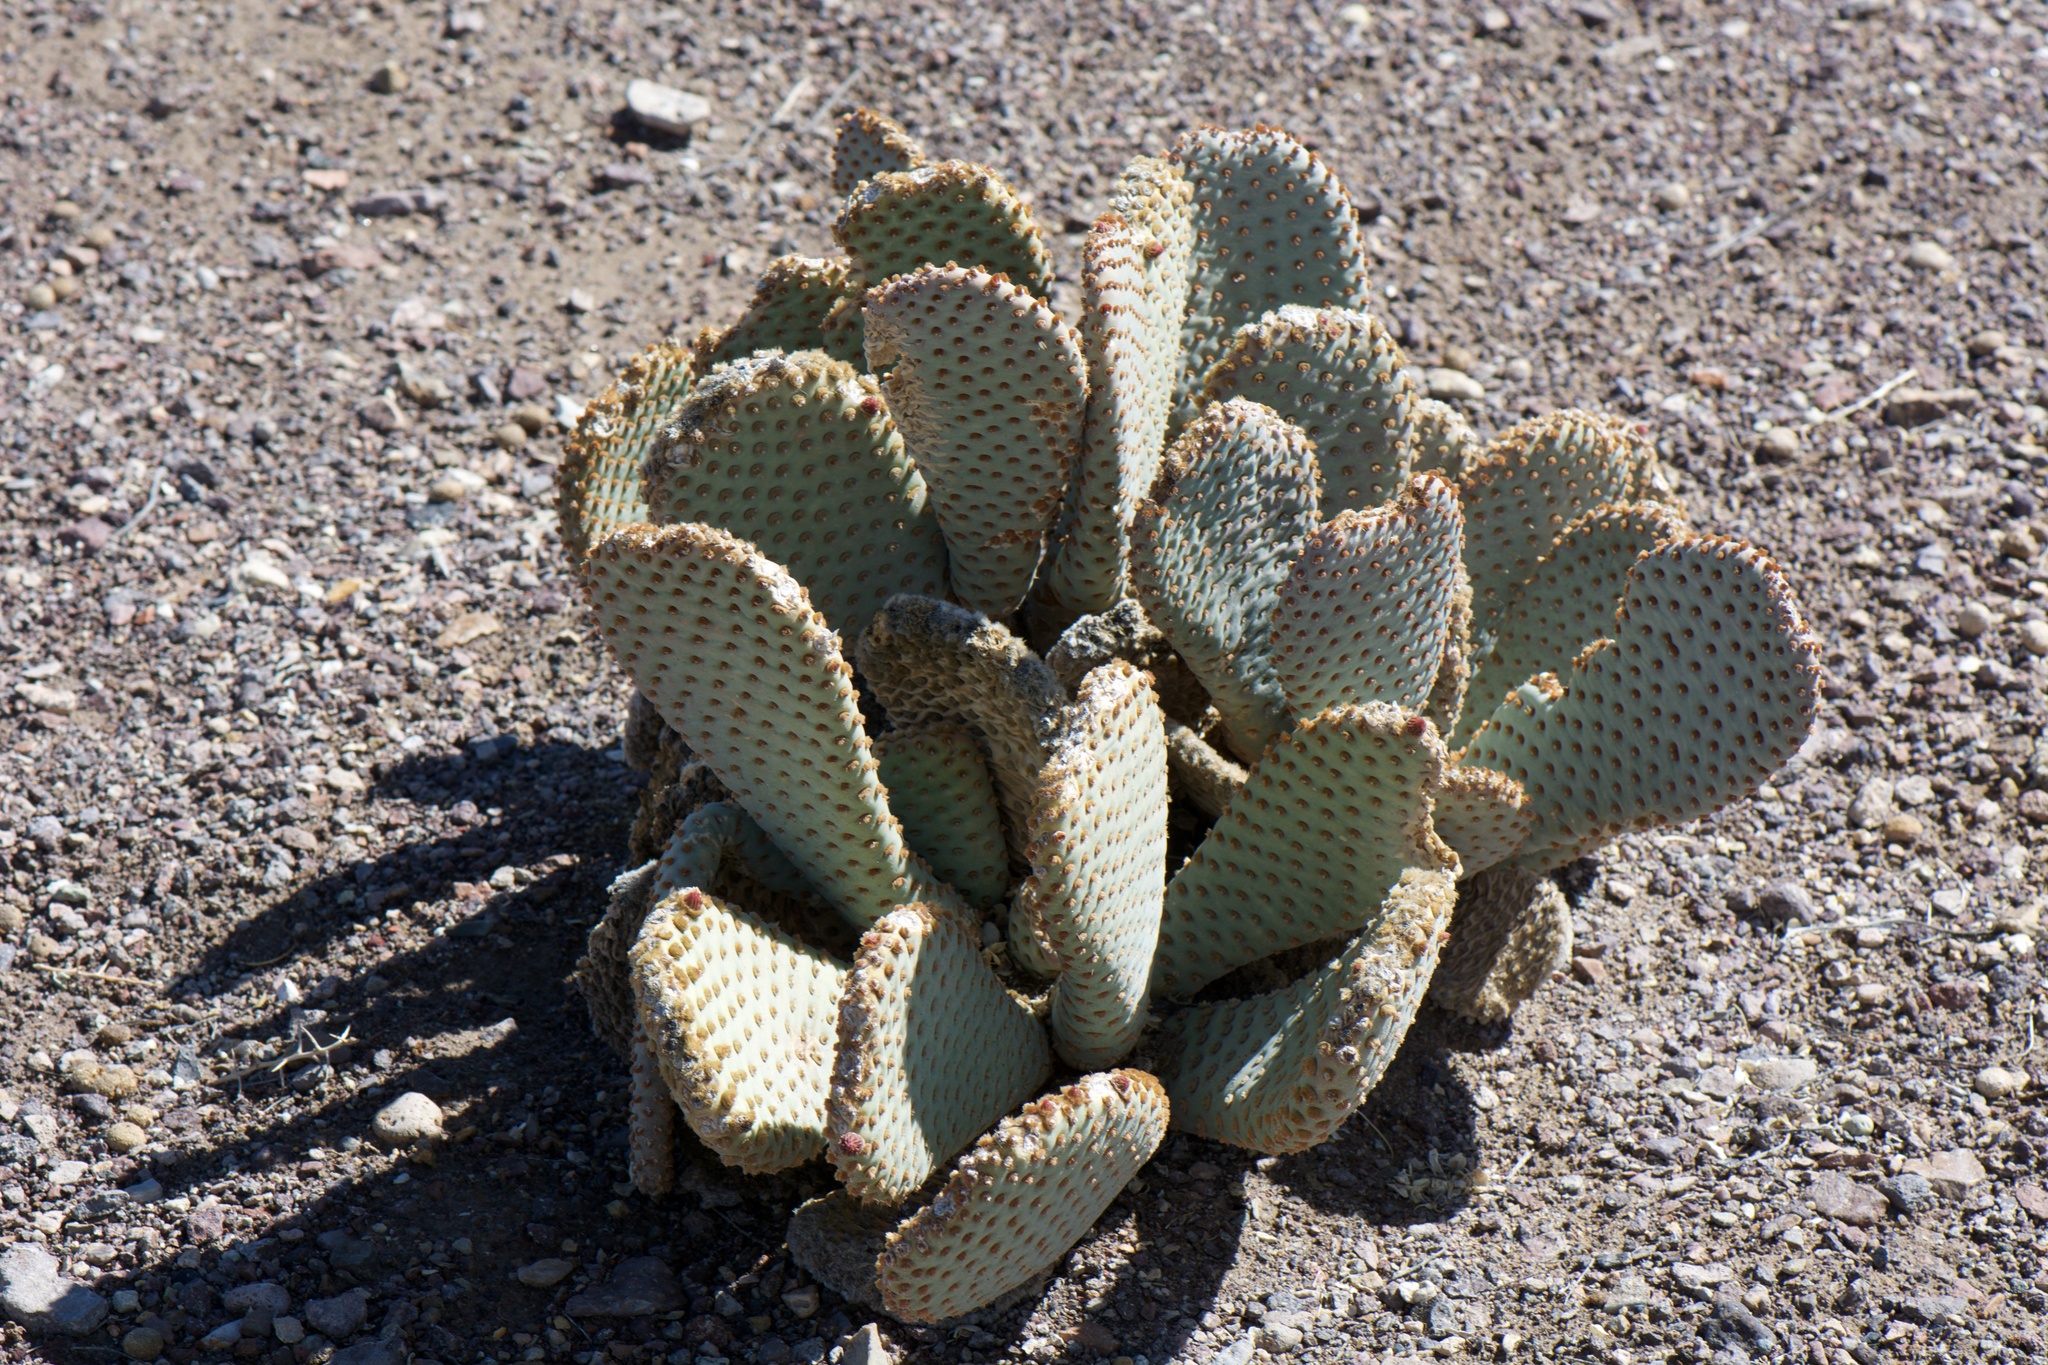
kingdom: Plantae
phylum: Tracheophyta
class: Magnoliopsida
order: Caryophyllales
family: Cactaceae
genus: Opuntia
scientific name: Opuntia basilaris
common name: Beavertail prickly-pear
